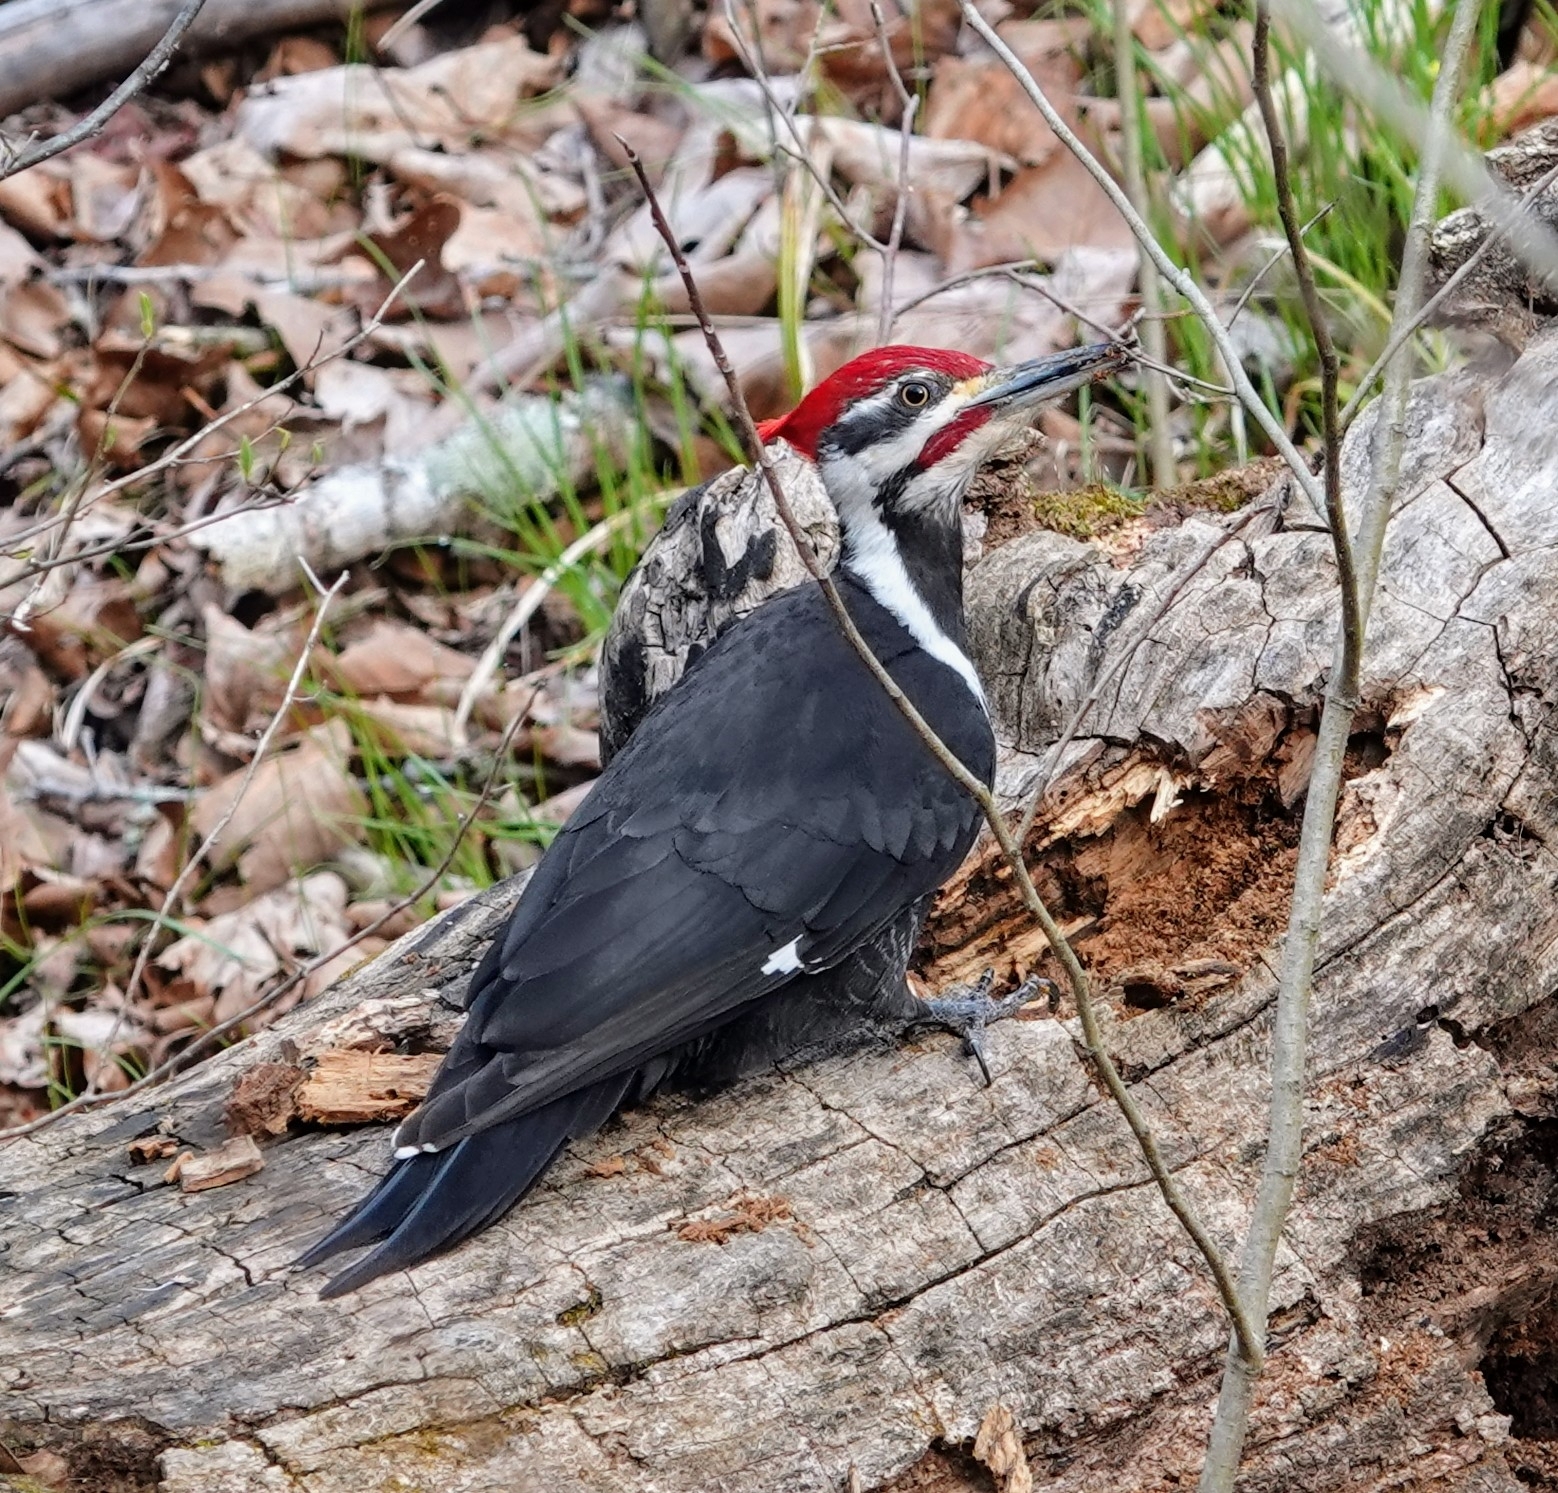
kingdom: Animalia
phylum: Chordata
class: Aves
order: Piciformes
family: Picidae
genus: Dryocopus
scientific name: Dryocopus pileatus
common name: Pileated woodpecker
